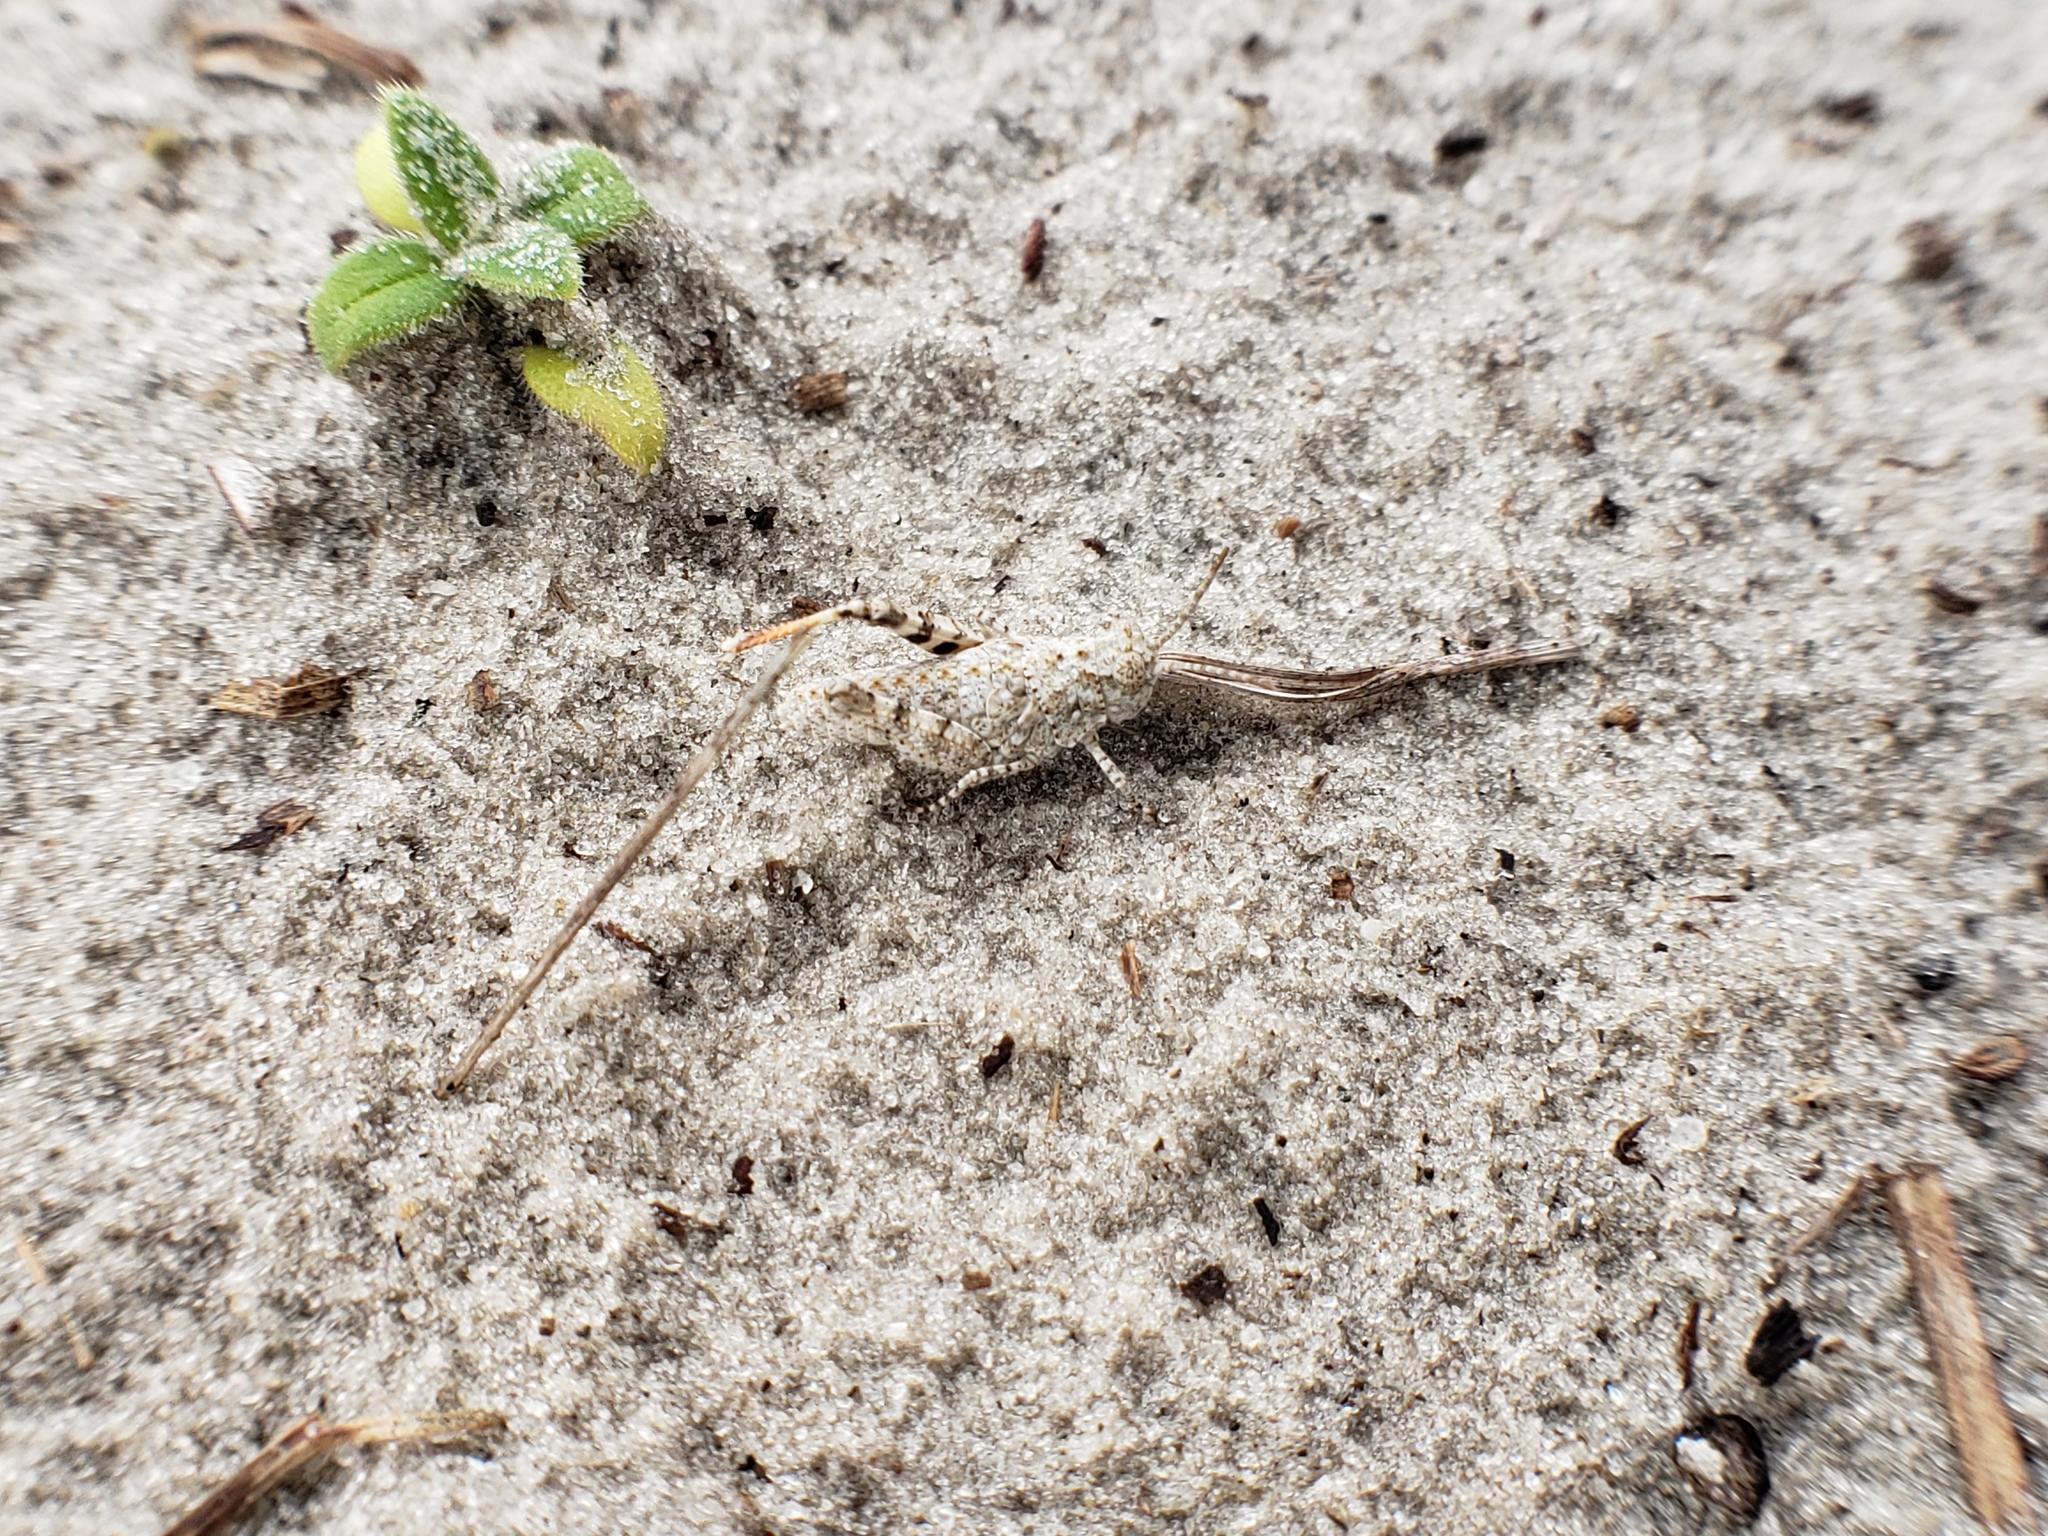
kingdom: Animalia
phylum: Arthropoda
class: Insecta
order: Orthoptera
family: Acrididae
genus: Trimerotropis
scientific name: Trimerotropis maritima
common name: Seaside locust
